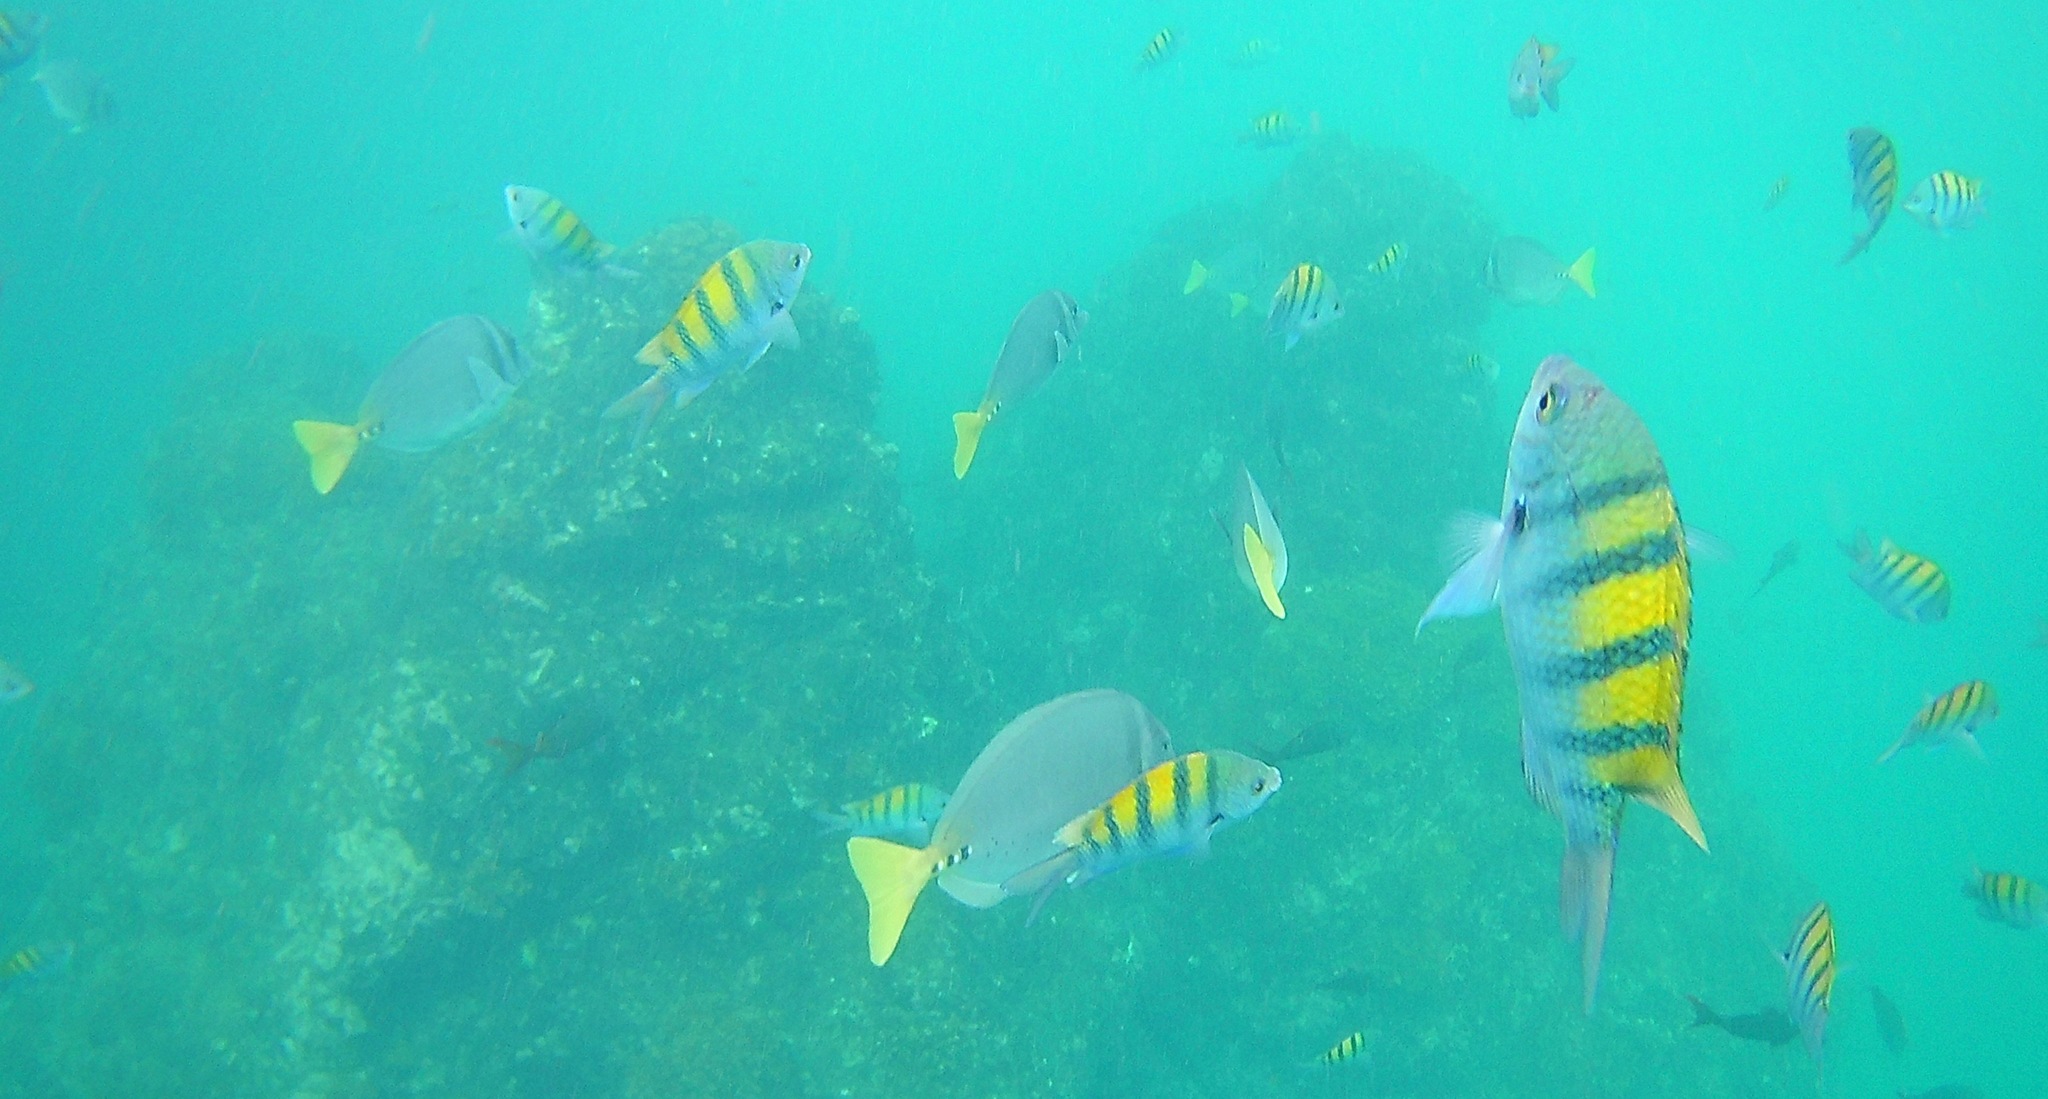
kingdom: Animalia
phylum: Chordata
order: Perciformes
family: Pomacentridae
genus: Abudefduf
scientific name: Abudefduf troschelii
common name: Panamic sergeant major
